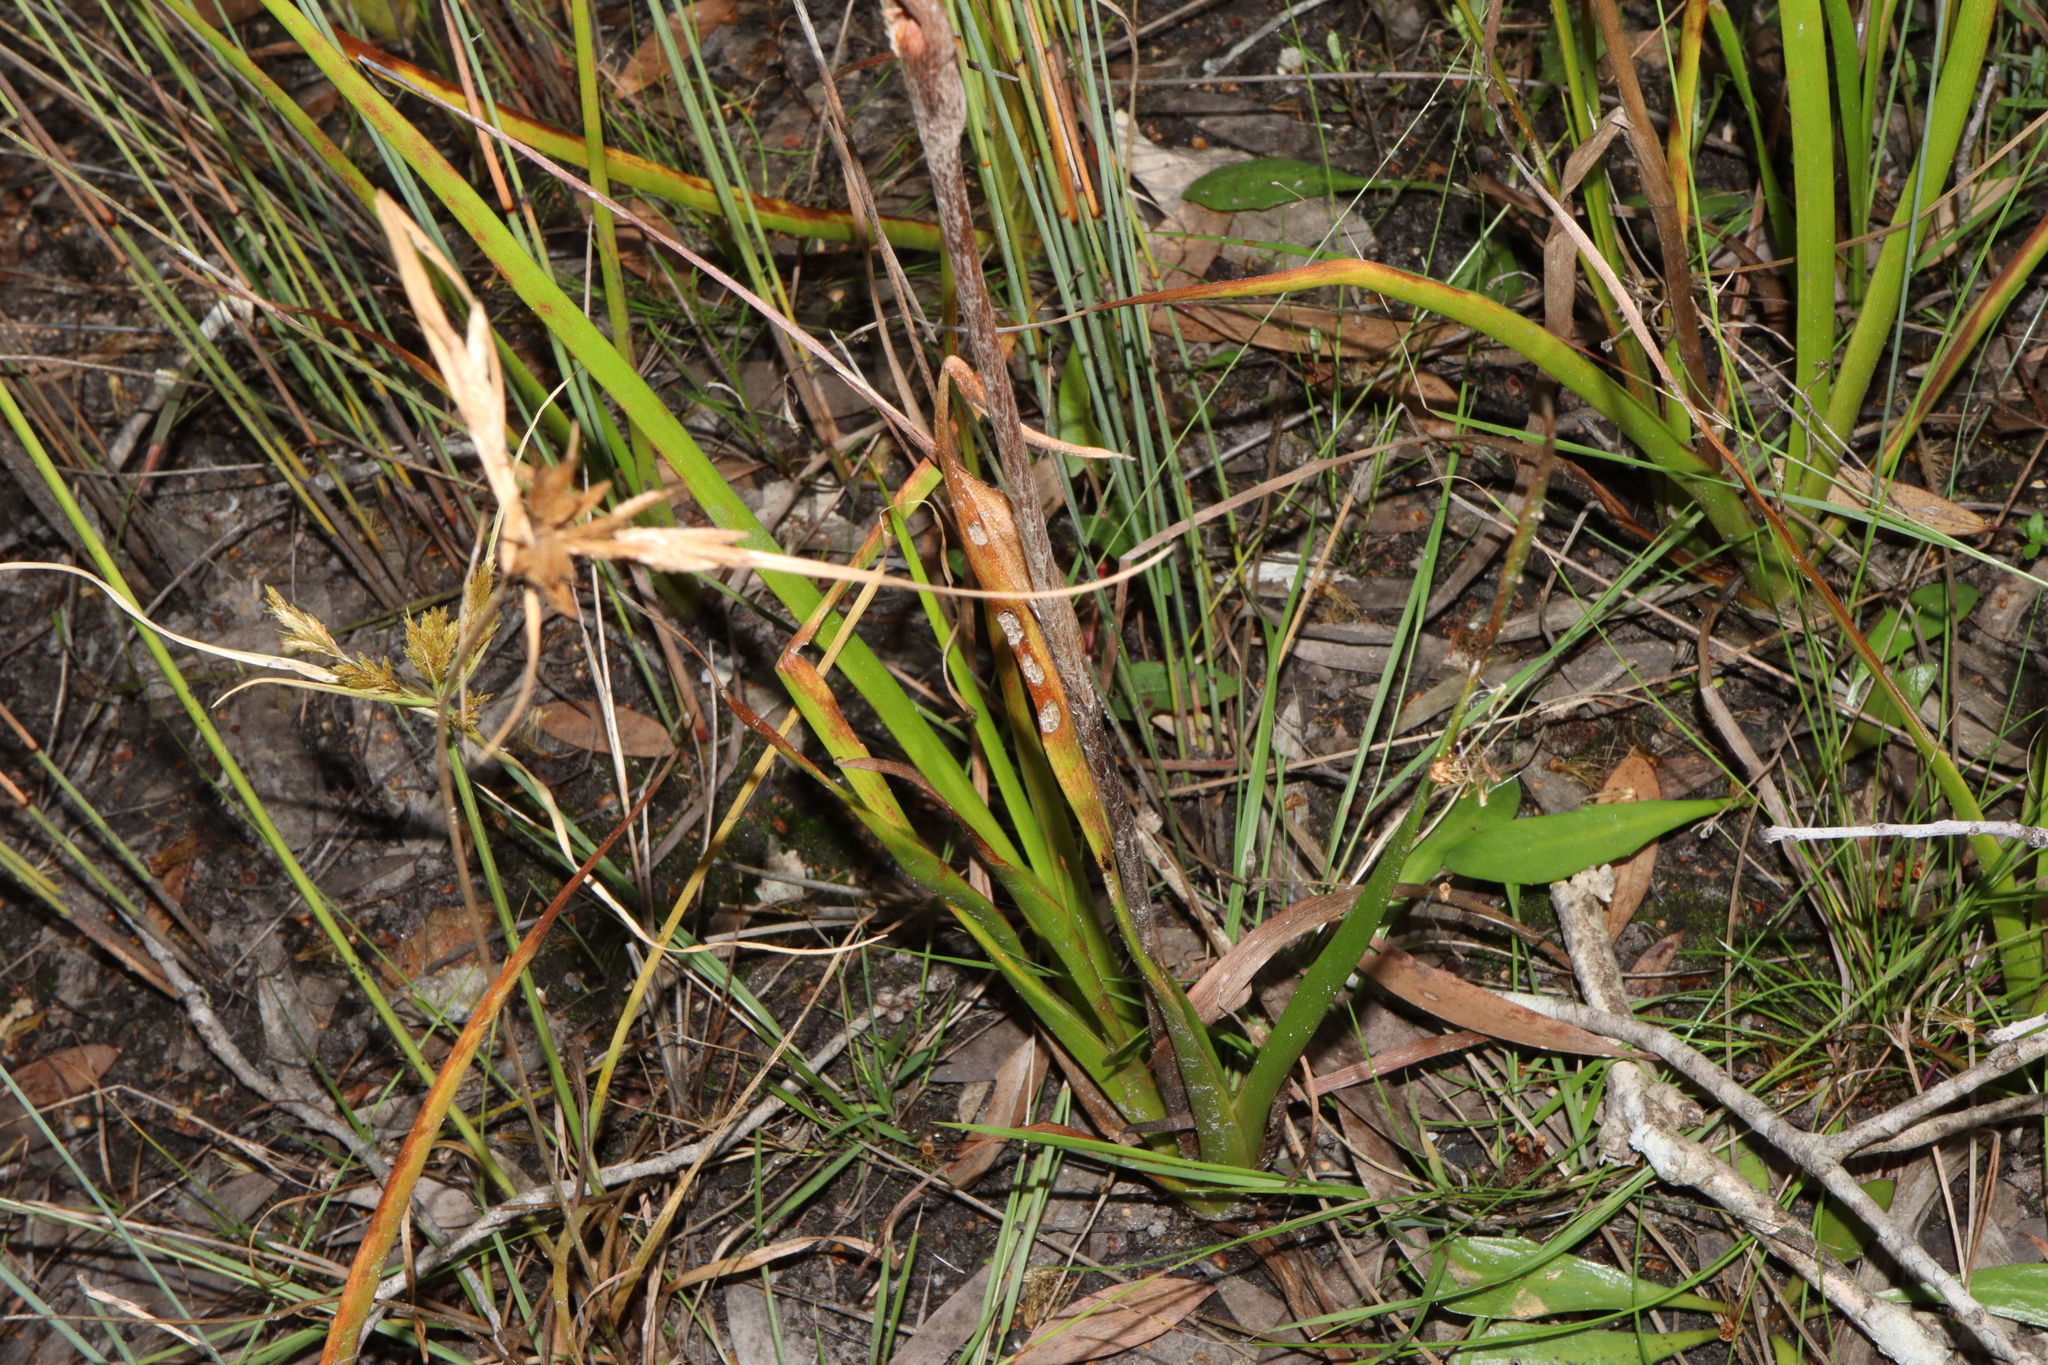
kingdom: Plantae
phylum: Tracheophyta
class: Liliopsida
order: Commelinales
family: Philydraceae
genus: Philydrum
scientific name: Philydrum lanuginosum
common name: Woolly frog's mouth
